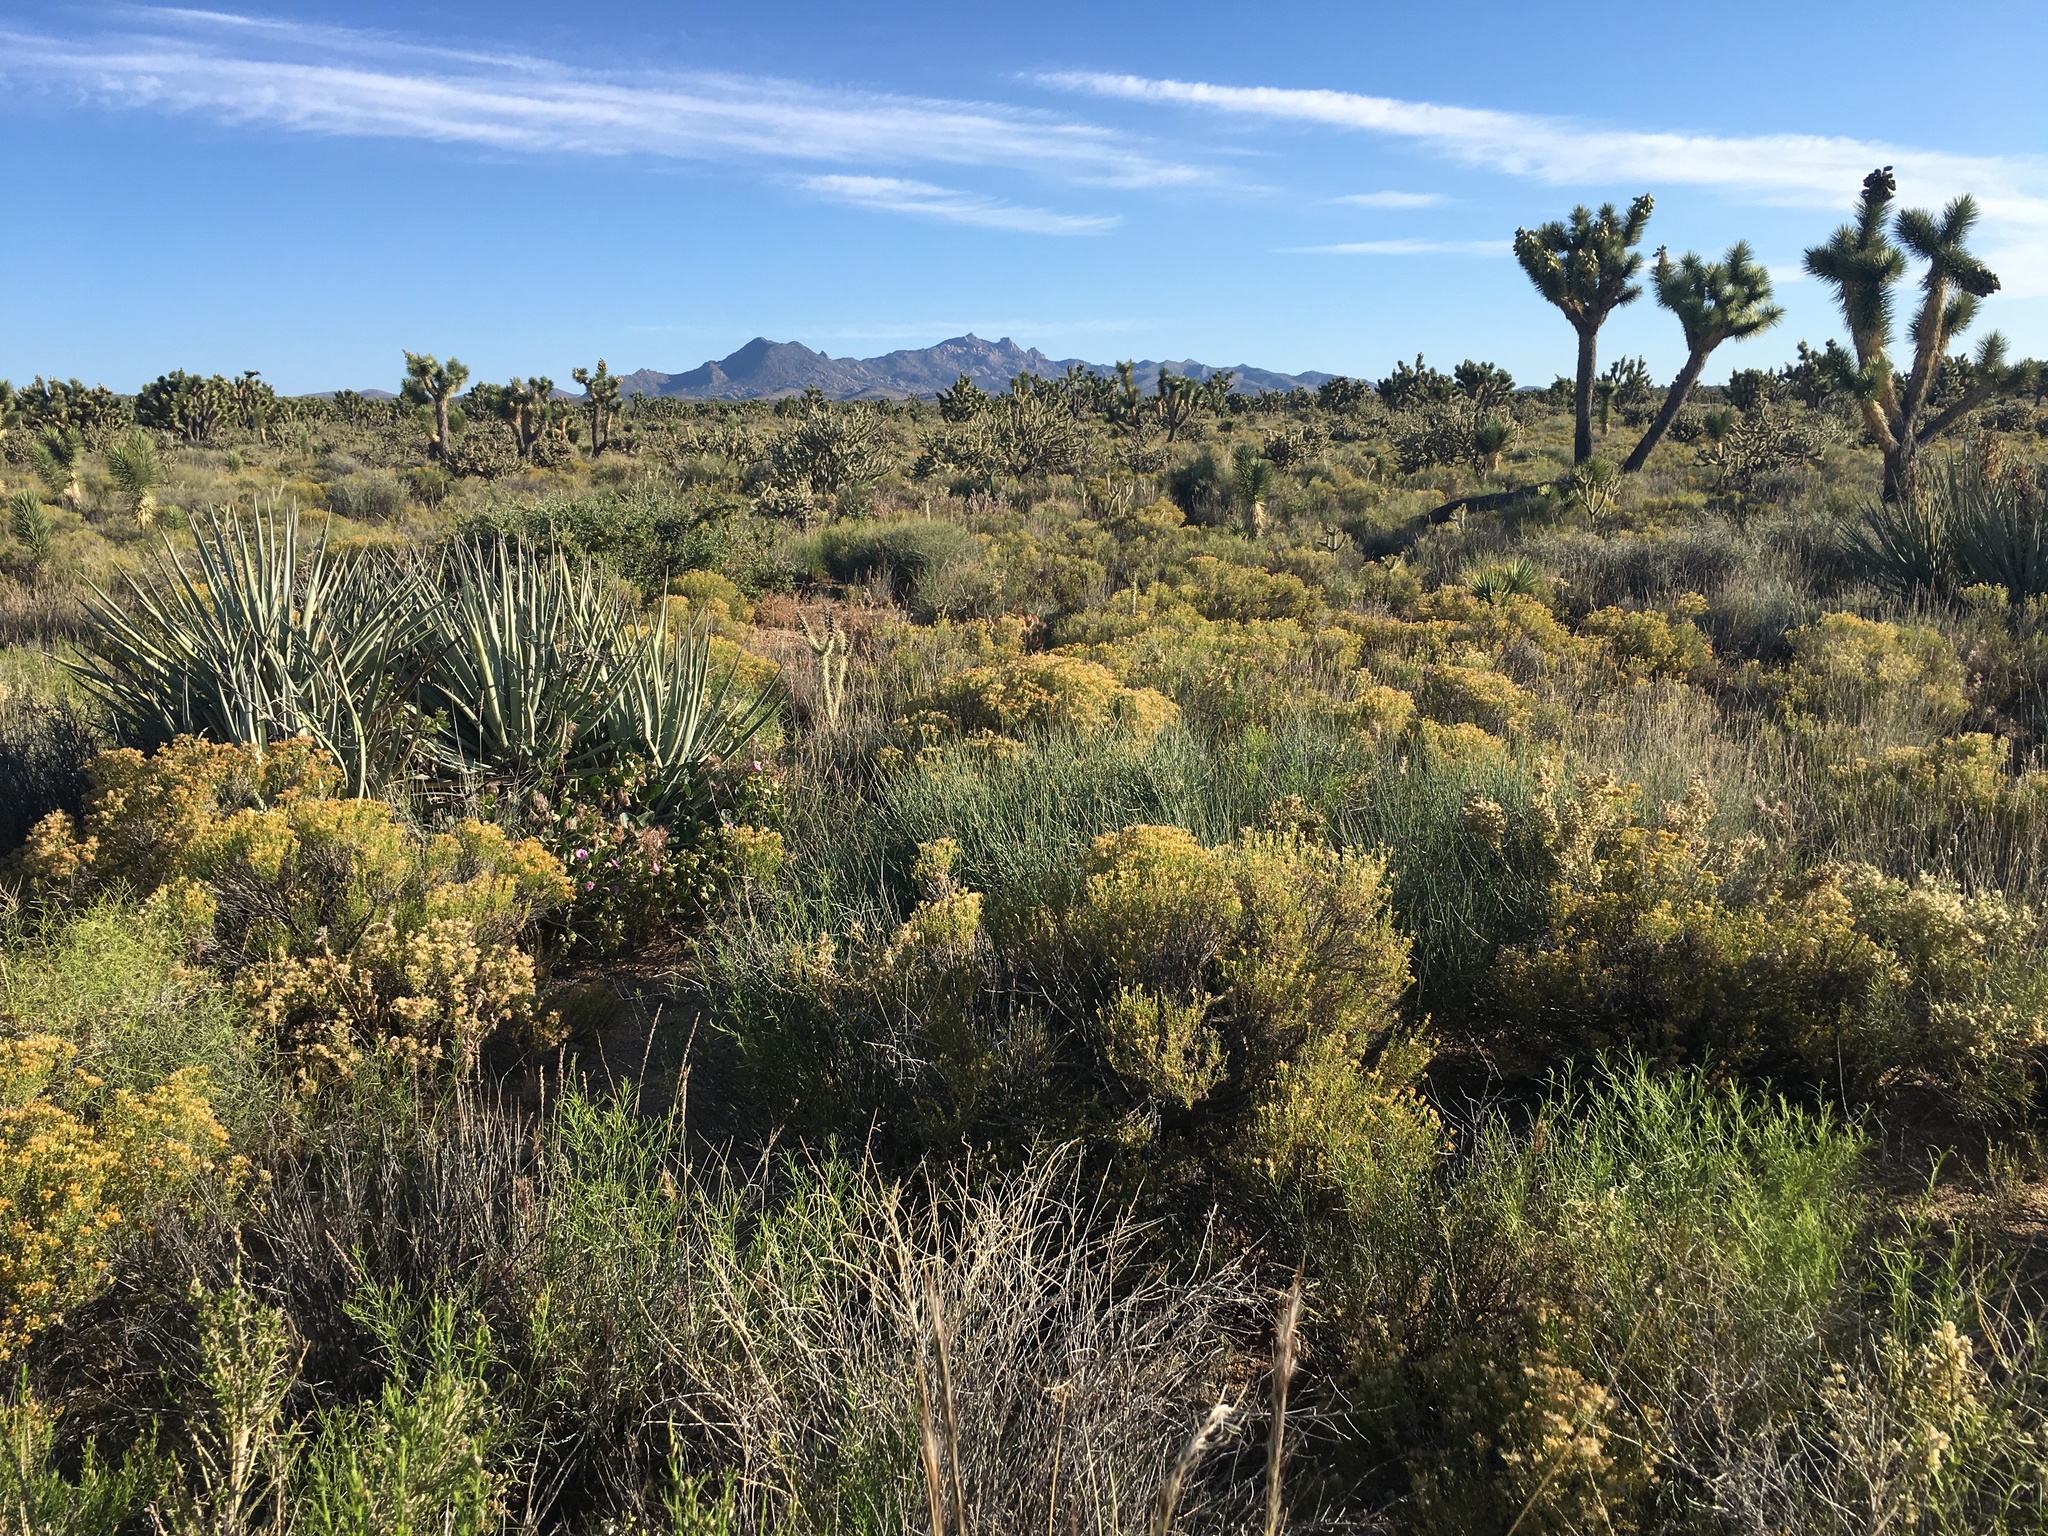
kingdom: Plantae
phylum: Tracheophyta
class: Liliopsida
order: Asparagales
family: Asparagaceae
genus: Yucca
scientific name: Yucca brevifolia
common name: Joshua tree
